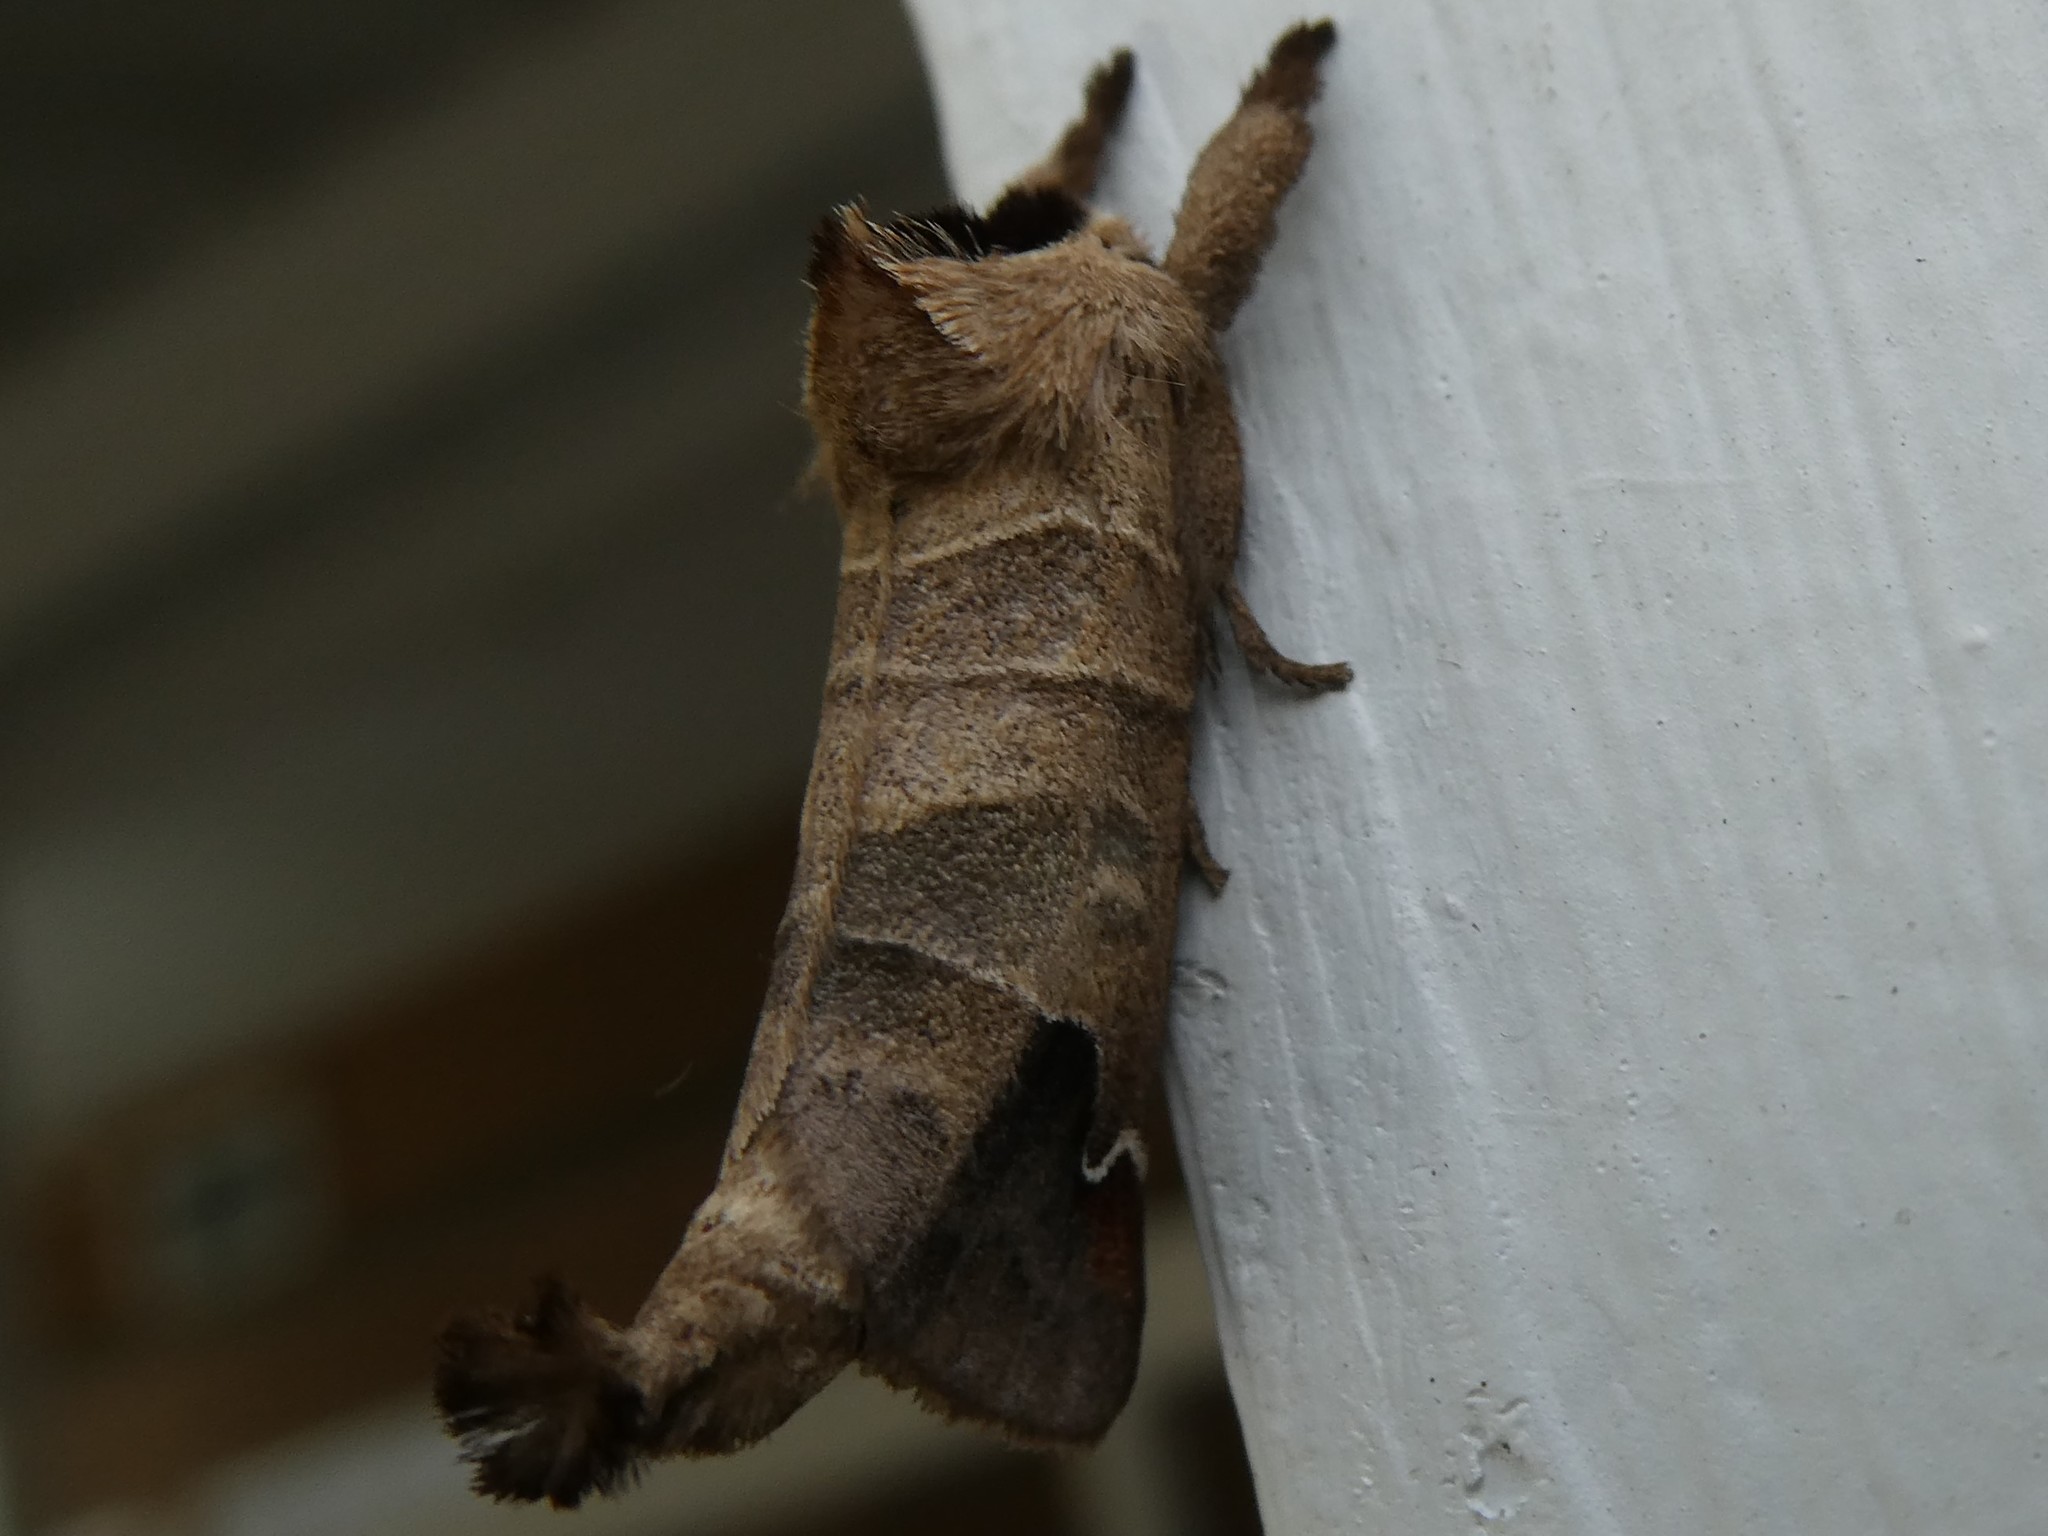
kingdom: Animalia
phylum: Arthropoda
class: Insecta
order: Lepidoptera
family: Notodontidae
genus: Clostera
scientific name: Clostera albosigma
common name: Sigmoid prominent
